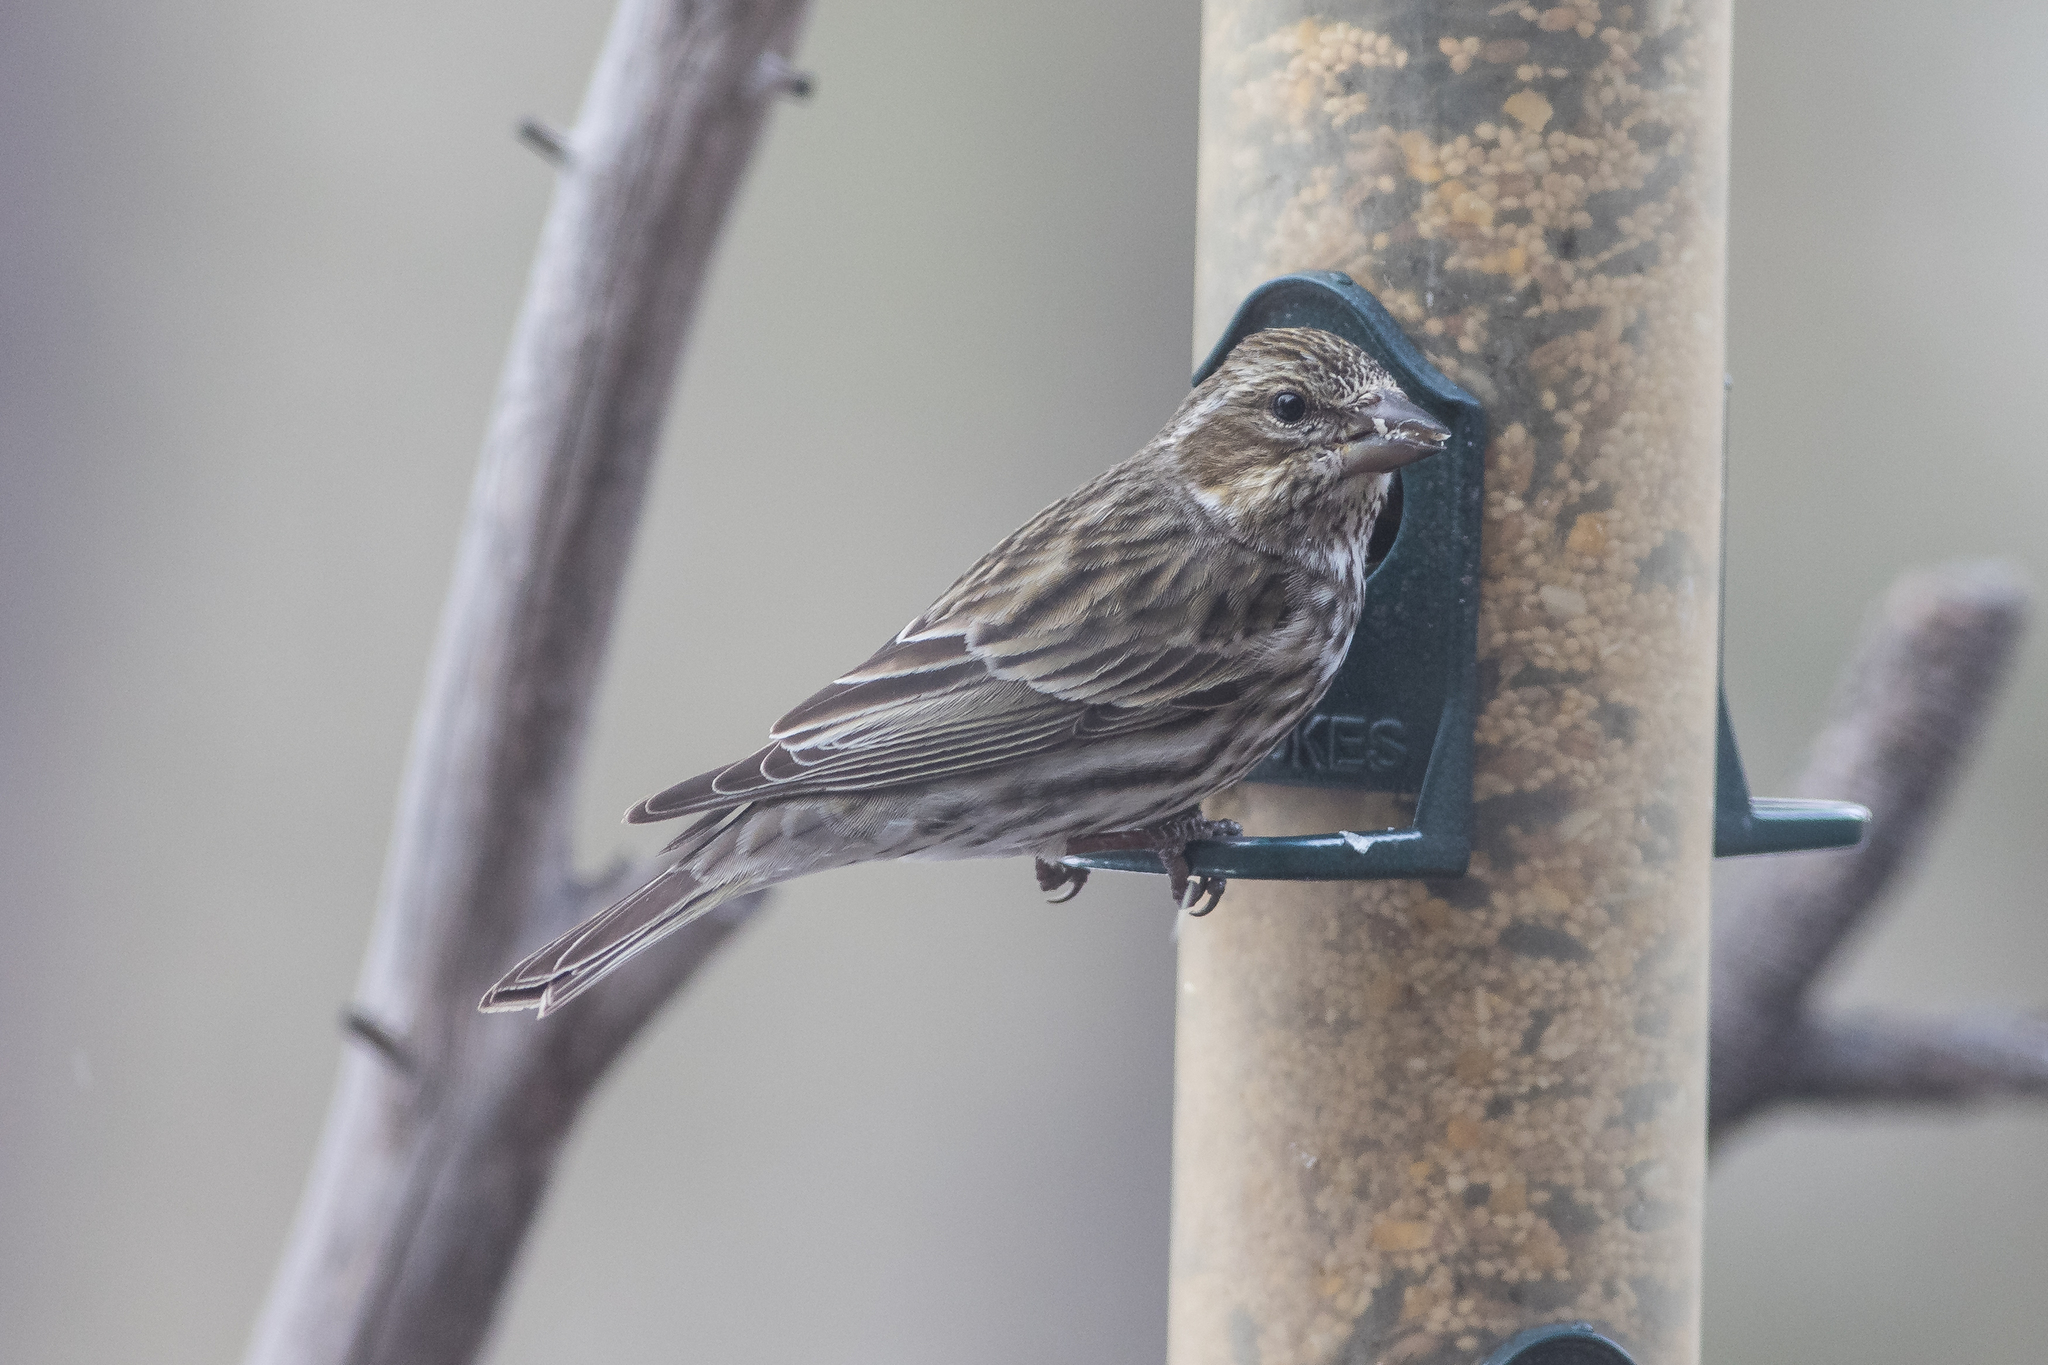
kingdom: Animalia
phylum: Chordata
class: Aves
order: Passeriformes
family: Fringillidae
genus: Haemorhous
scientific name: Haemorhous cassinii
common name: Cassin's finch
